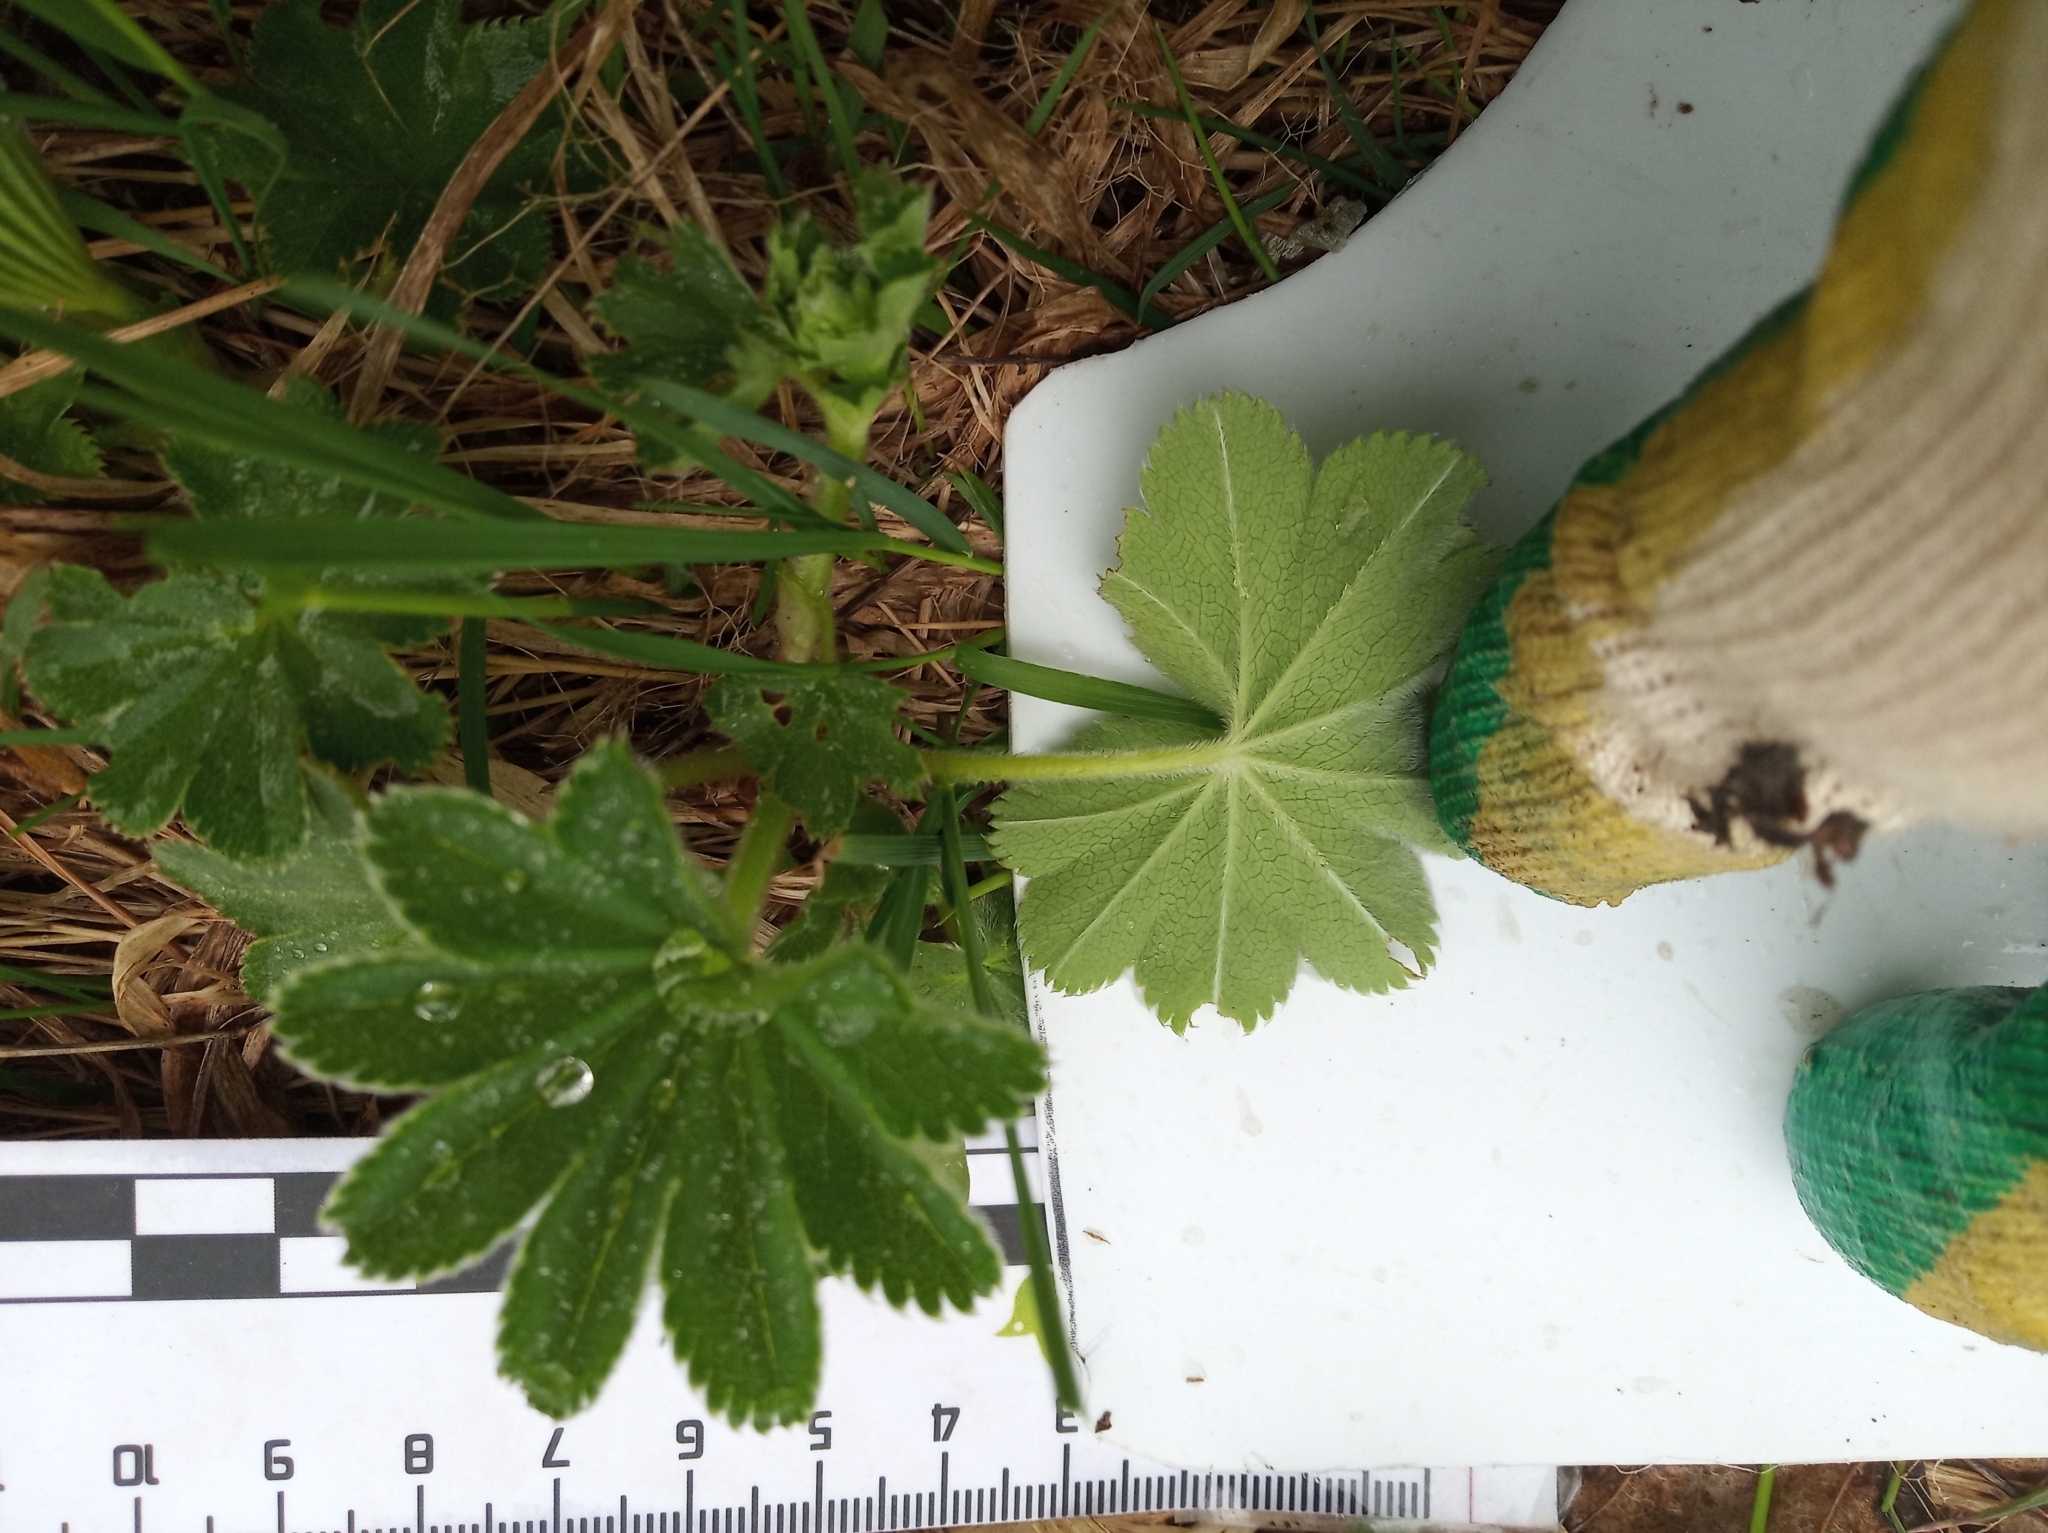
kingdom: Plantae
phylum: Tracheophyta
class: Magnoliopsida
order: Rosales
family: Rosaceae
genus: Alchemilla
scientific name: Alchemilla
